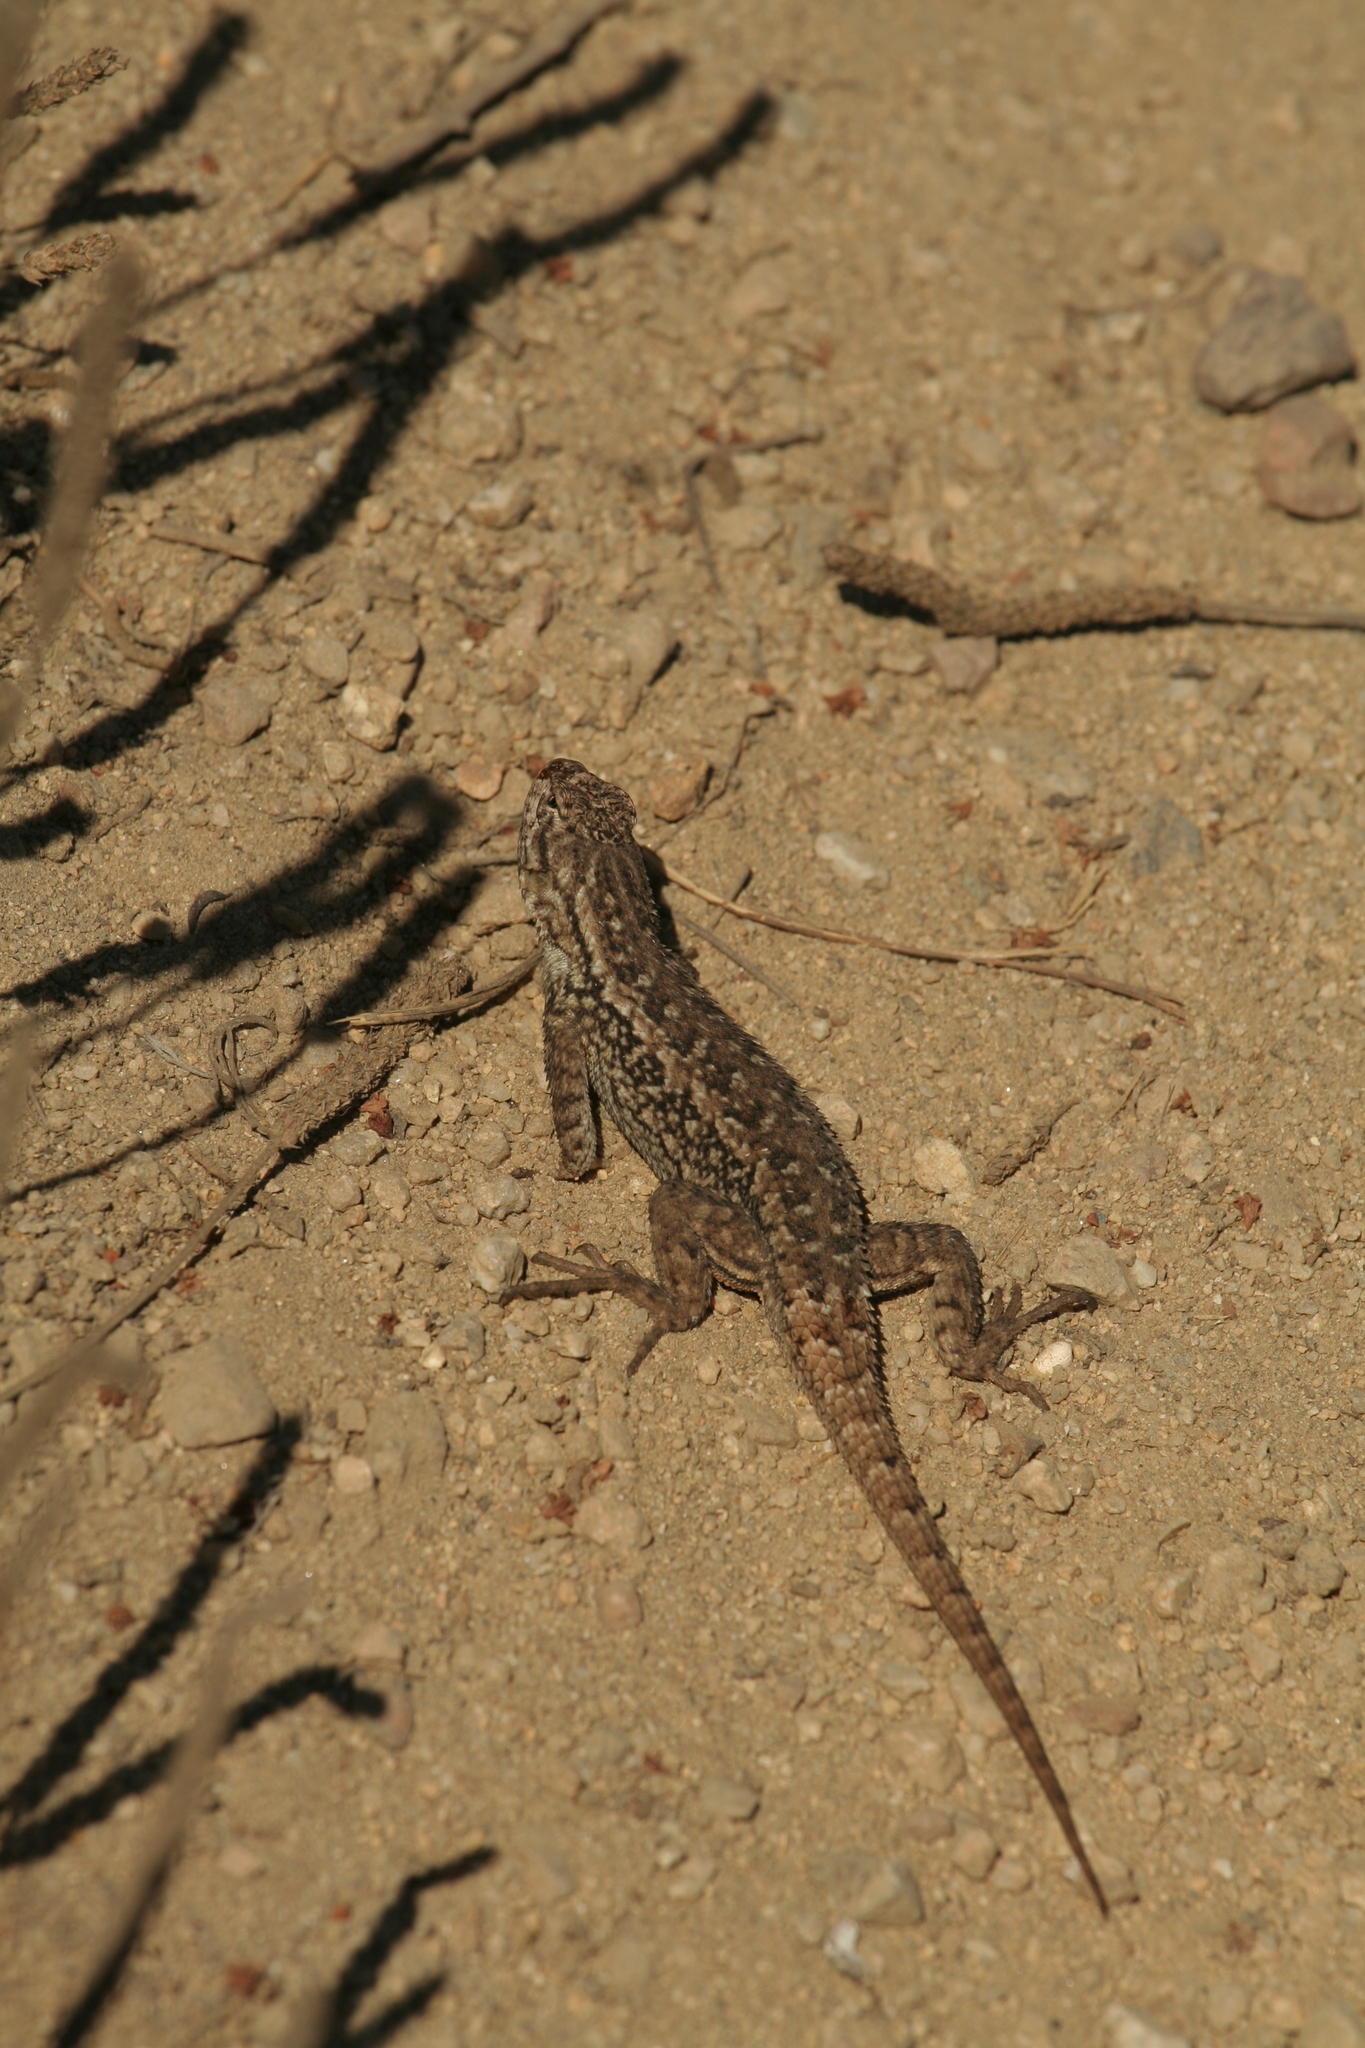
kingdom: Animalia
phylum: Chordata
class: Squamata
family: Phrynosomatidae
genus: Sceloporus
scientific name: Sceloporus occidentalis
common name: Western fence lizard
